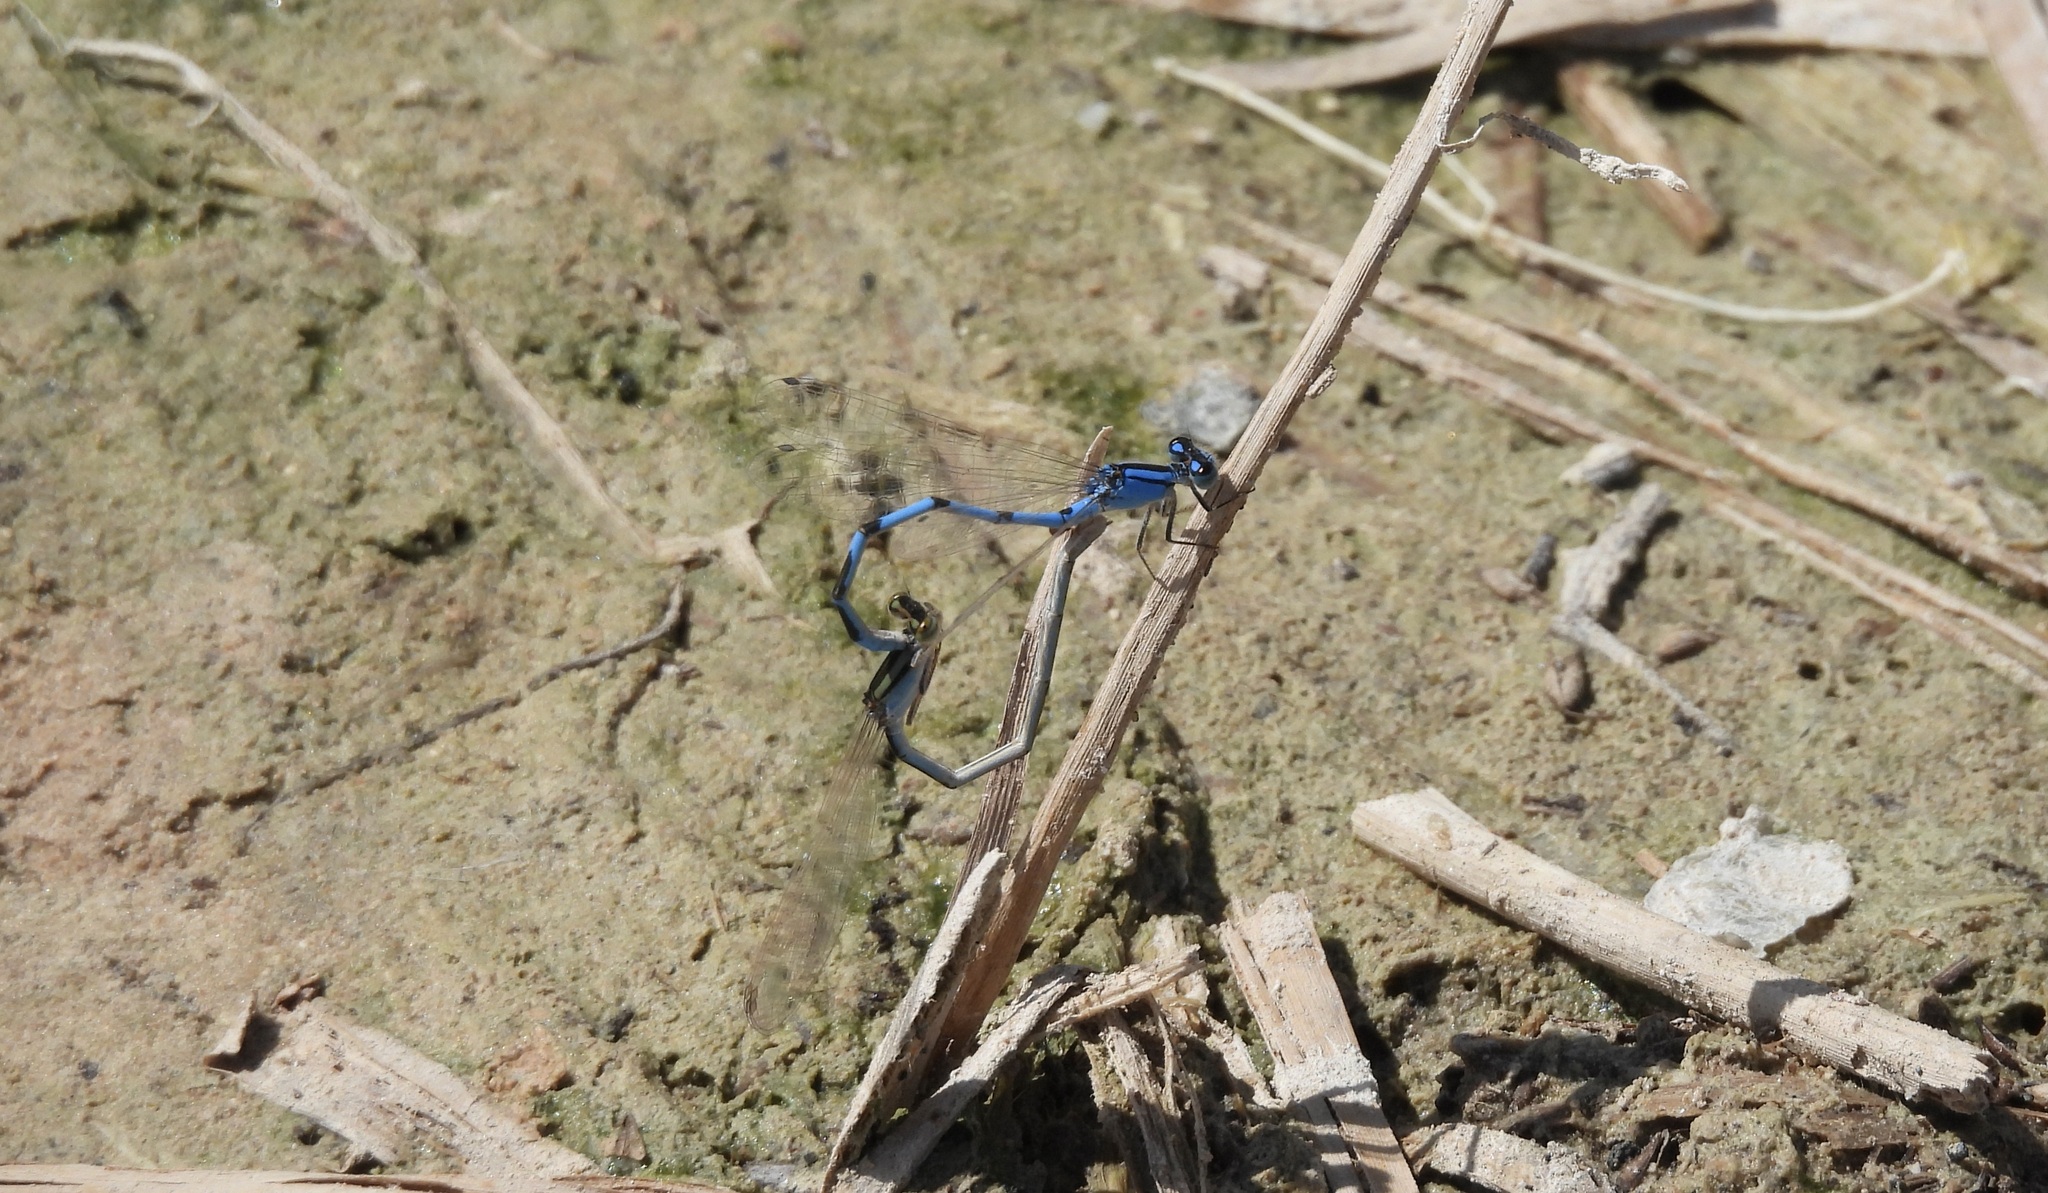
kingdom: Animalia
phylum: Arthropoda
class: Insecta
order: Odonata
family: Coenagrionidae
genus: Enallagma
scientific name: Enallagma civile
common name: Damselfly
